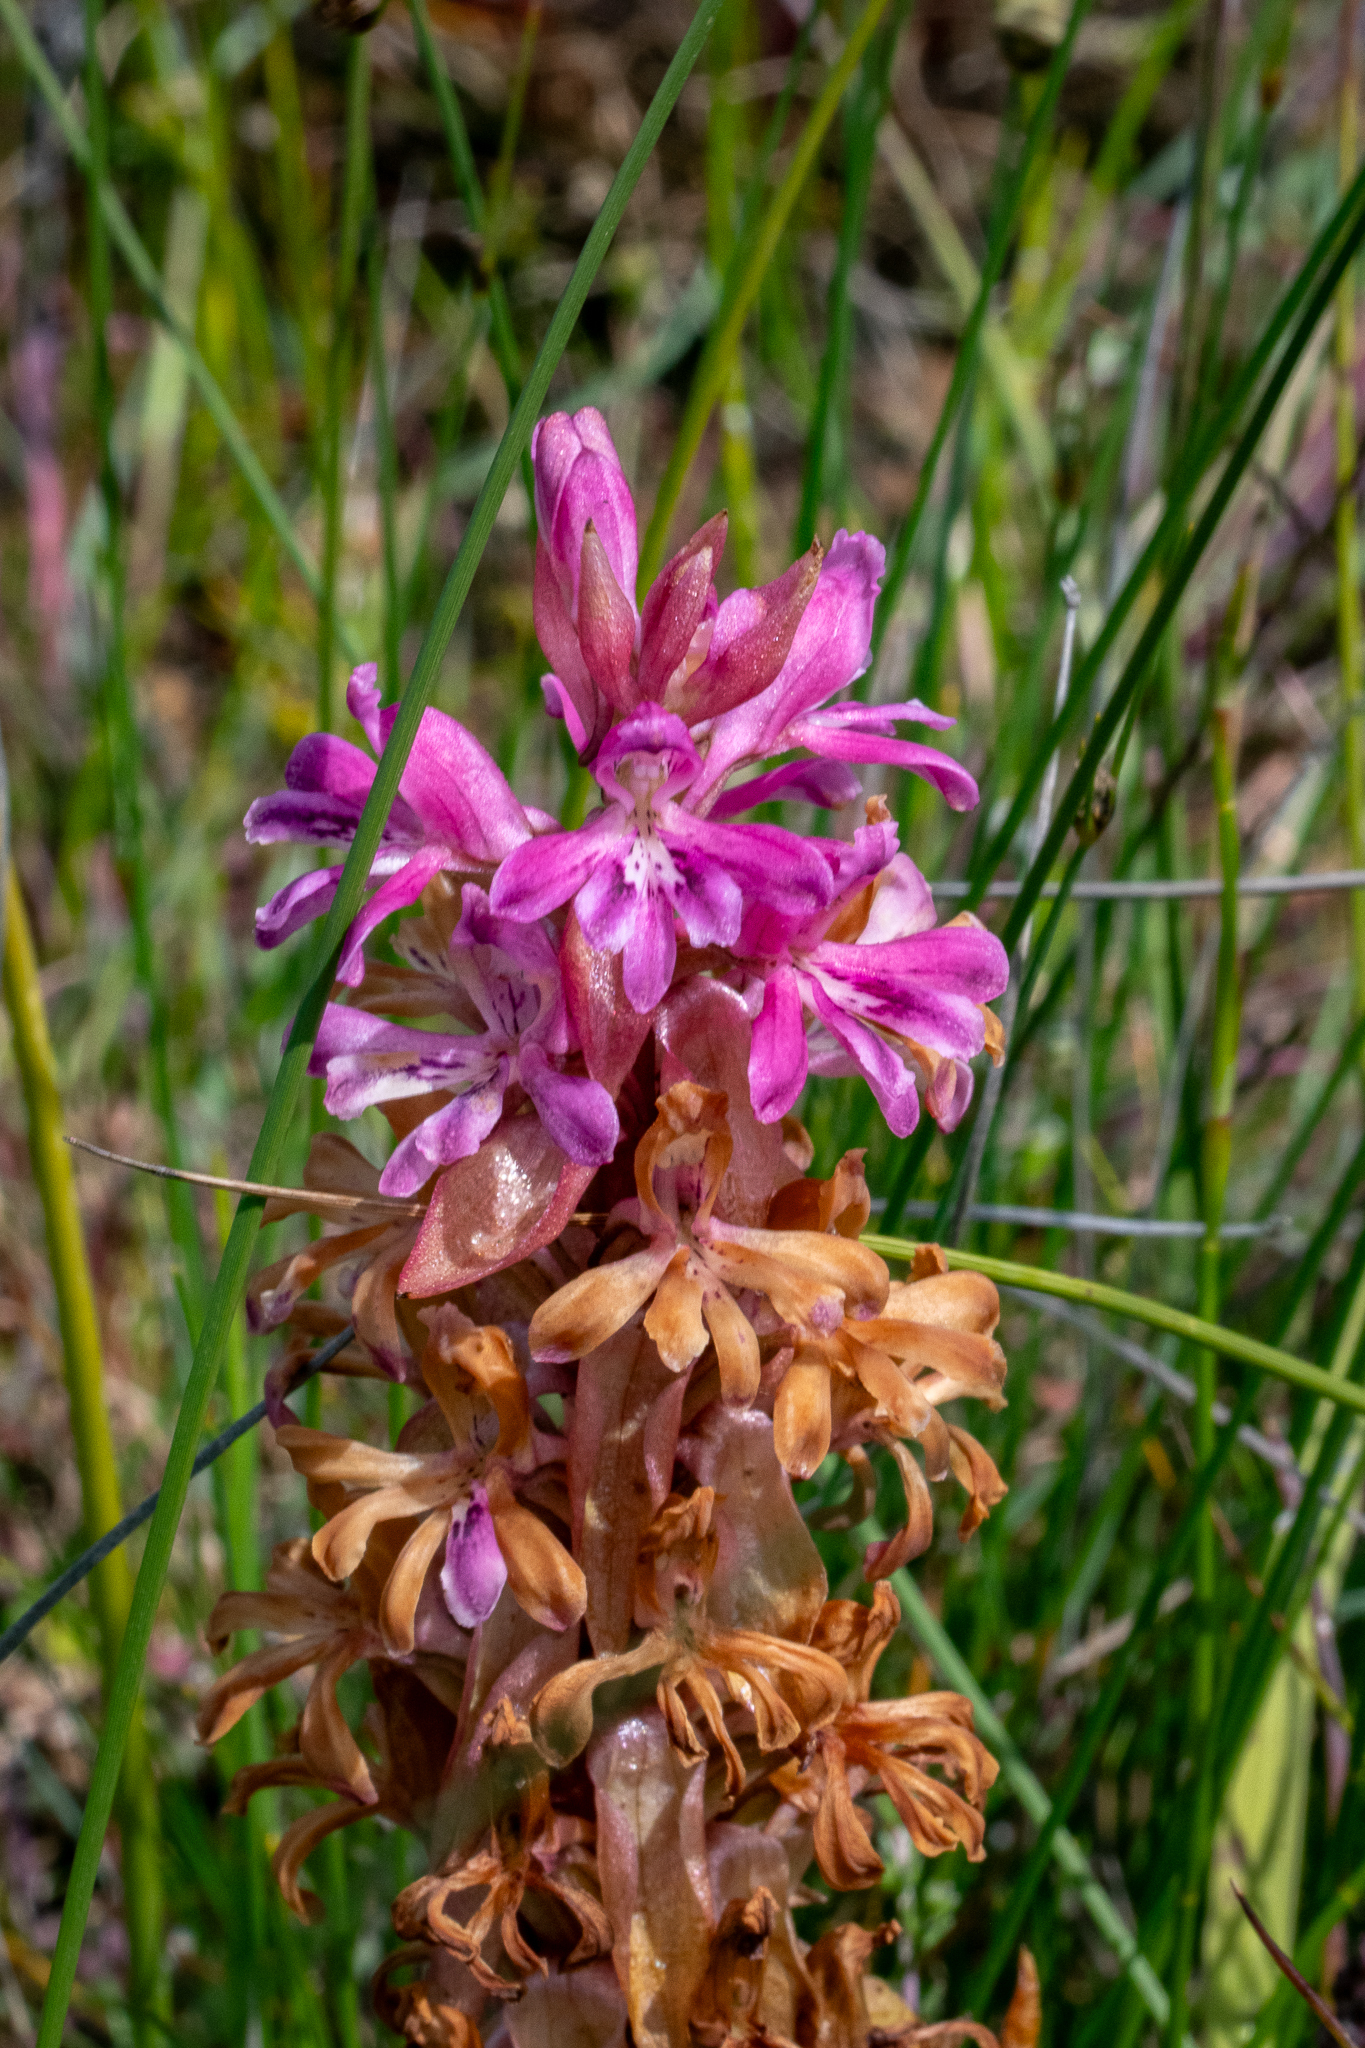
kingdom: Plantae
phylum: Tracheophyta
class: Liliopsida
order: Asparagales
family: Orchidaceae
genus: Satyrium
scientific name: Satyrium erectum
